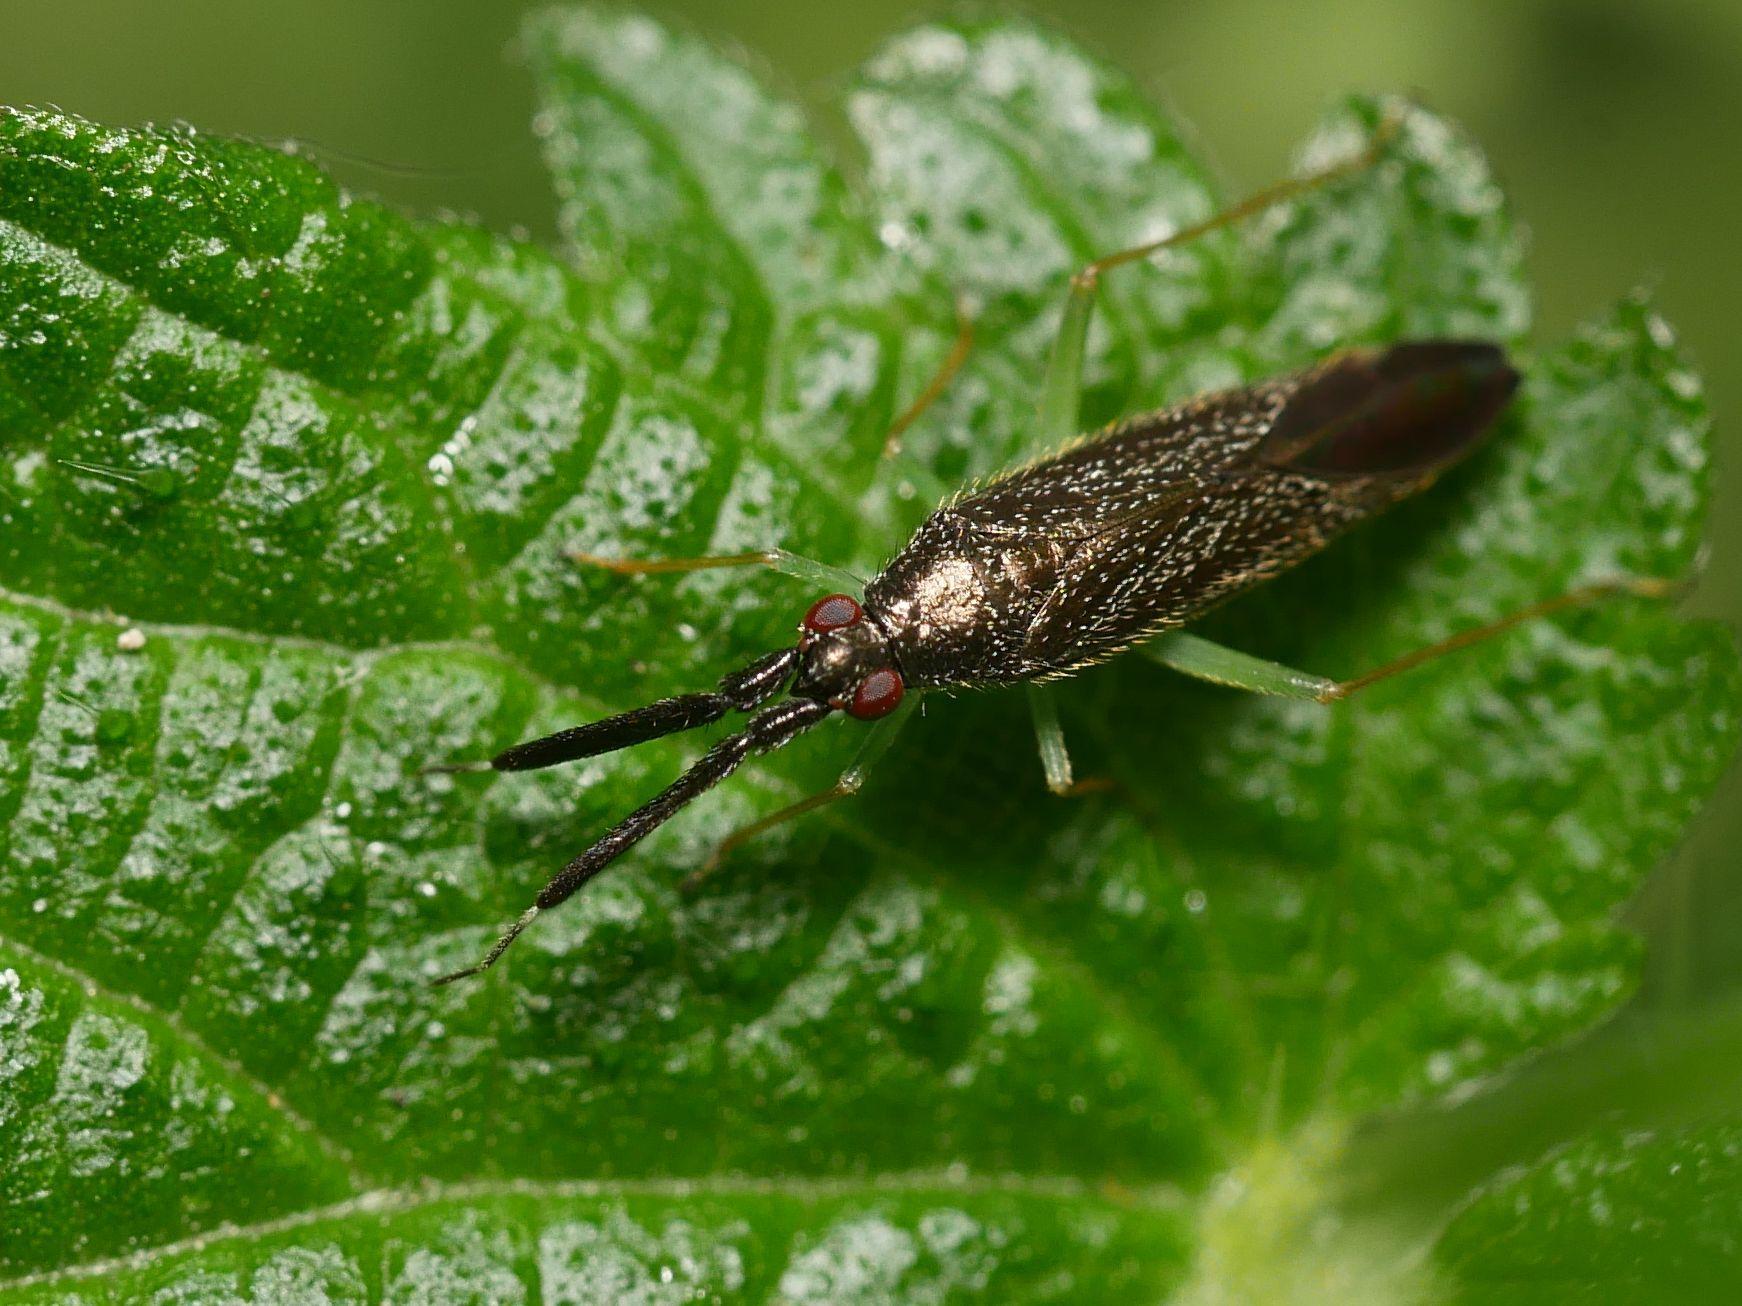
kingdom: Animalia
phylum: Arthropoda
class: Insecta
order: Hemiptera
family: Miridae
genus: Heterotoma
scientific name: Heterotoma planicornis
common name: Plant bug
